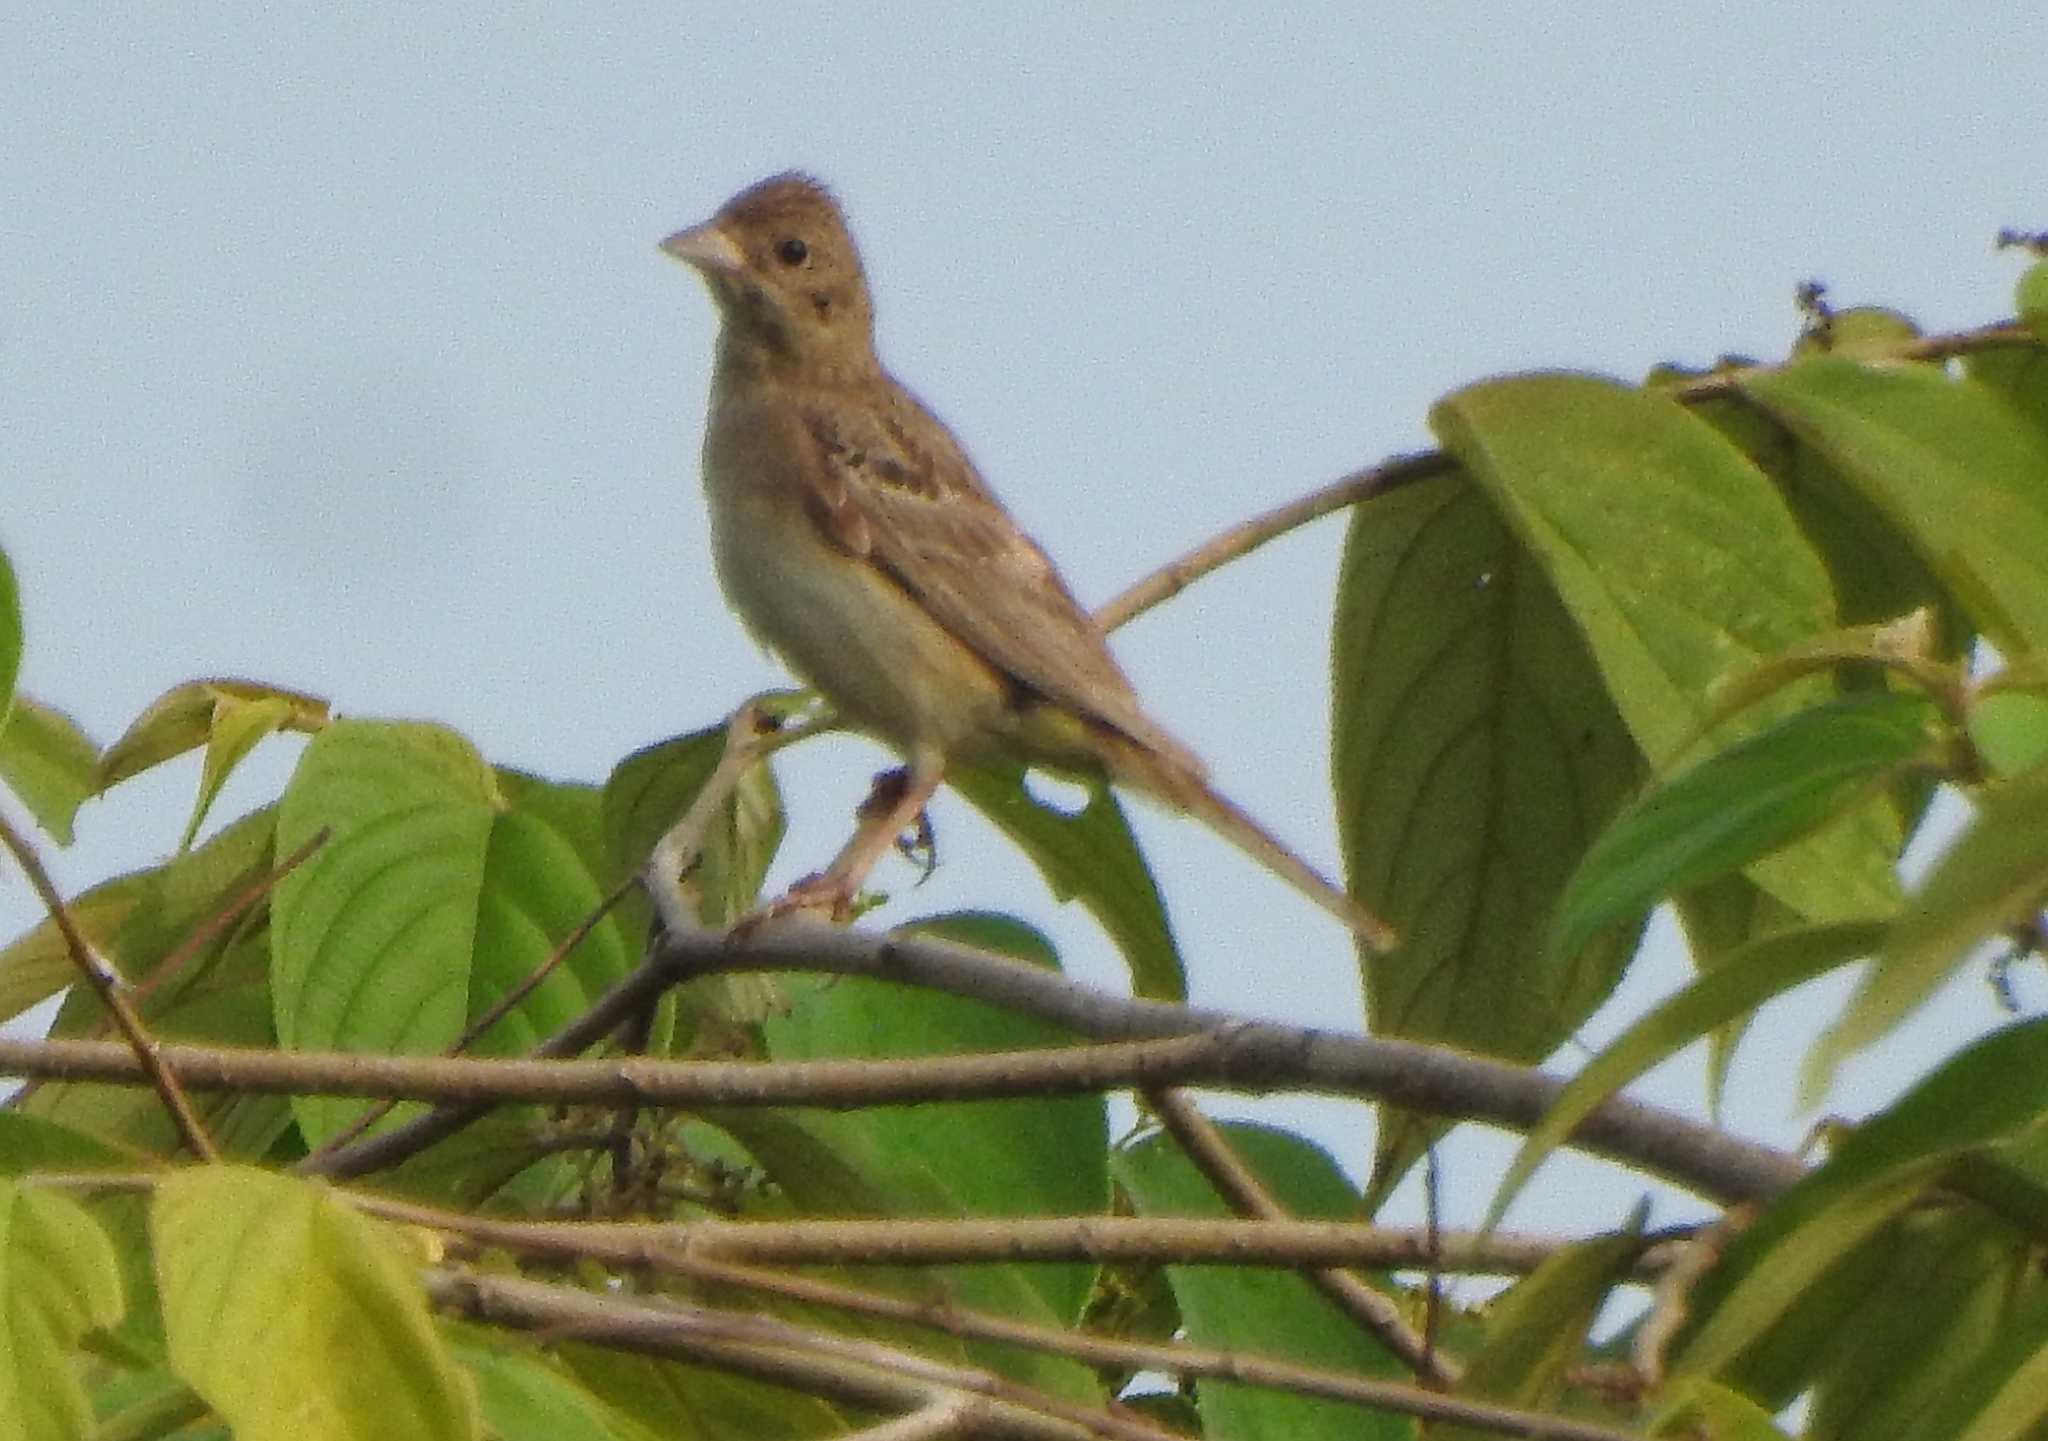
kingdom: Animalia
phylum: Chordata
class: Aves
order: Passeriformes
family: Emberizidae
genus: Emberiza
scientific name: Emberiza melanocephala
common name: Black-headed bunting
